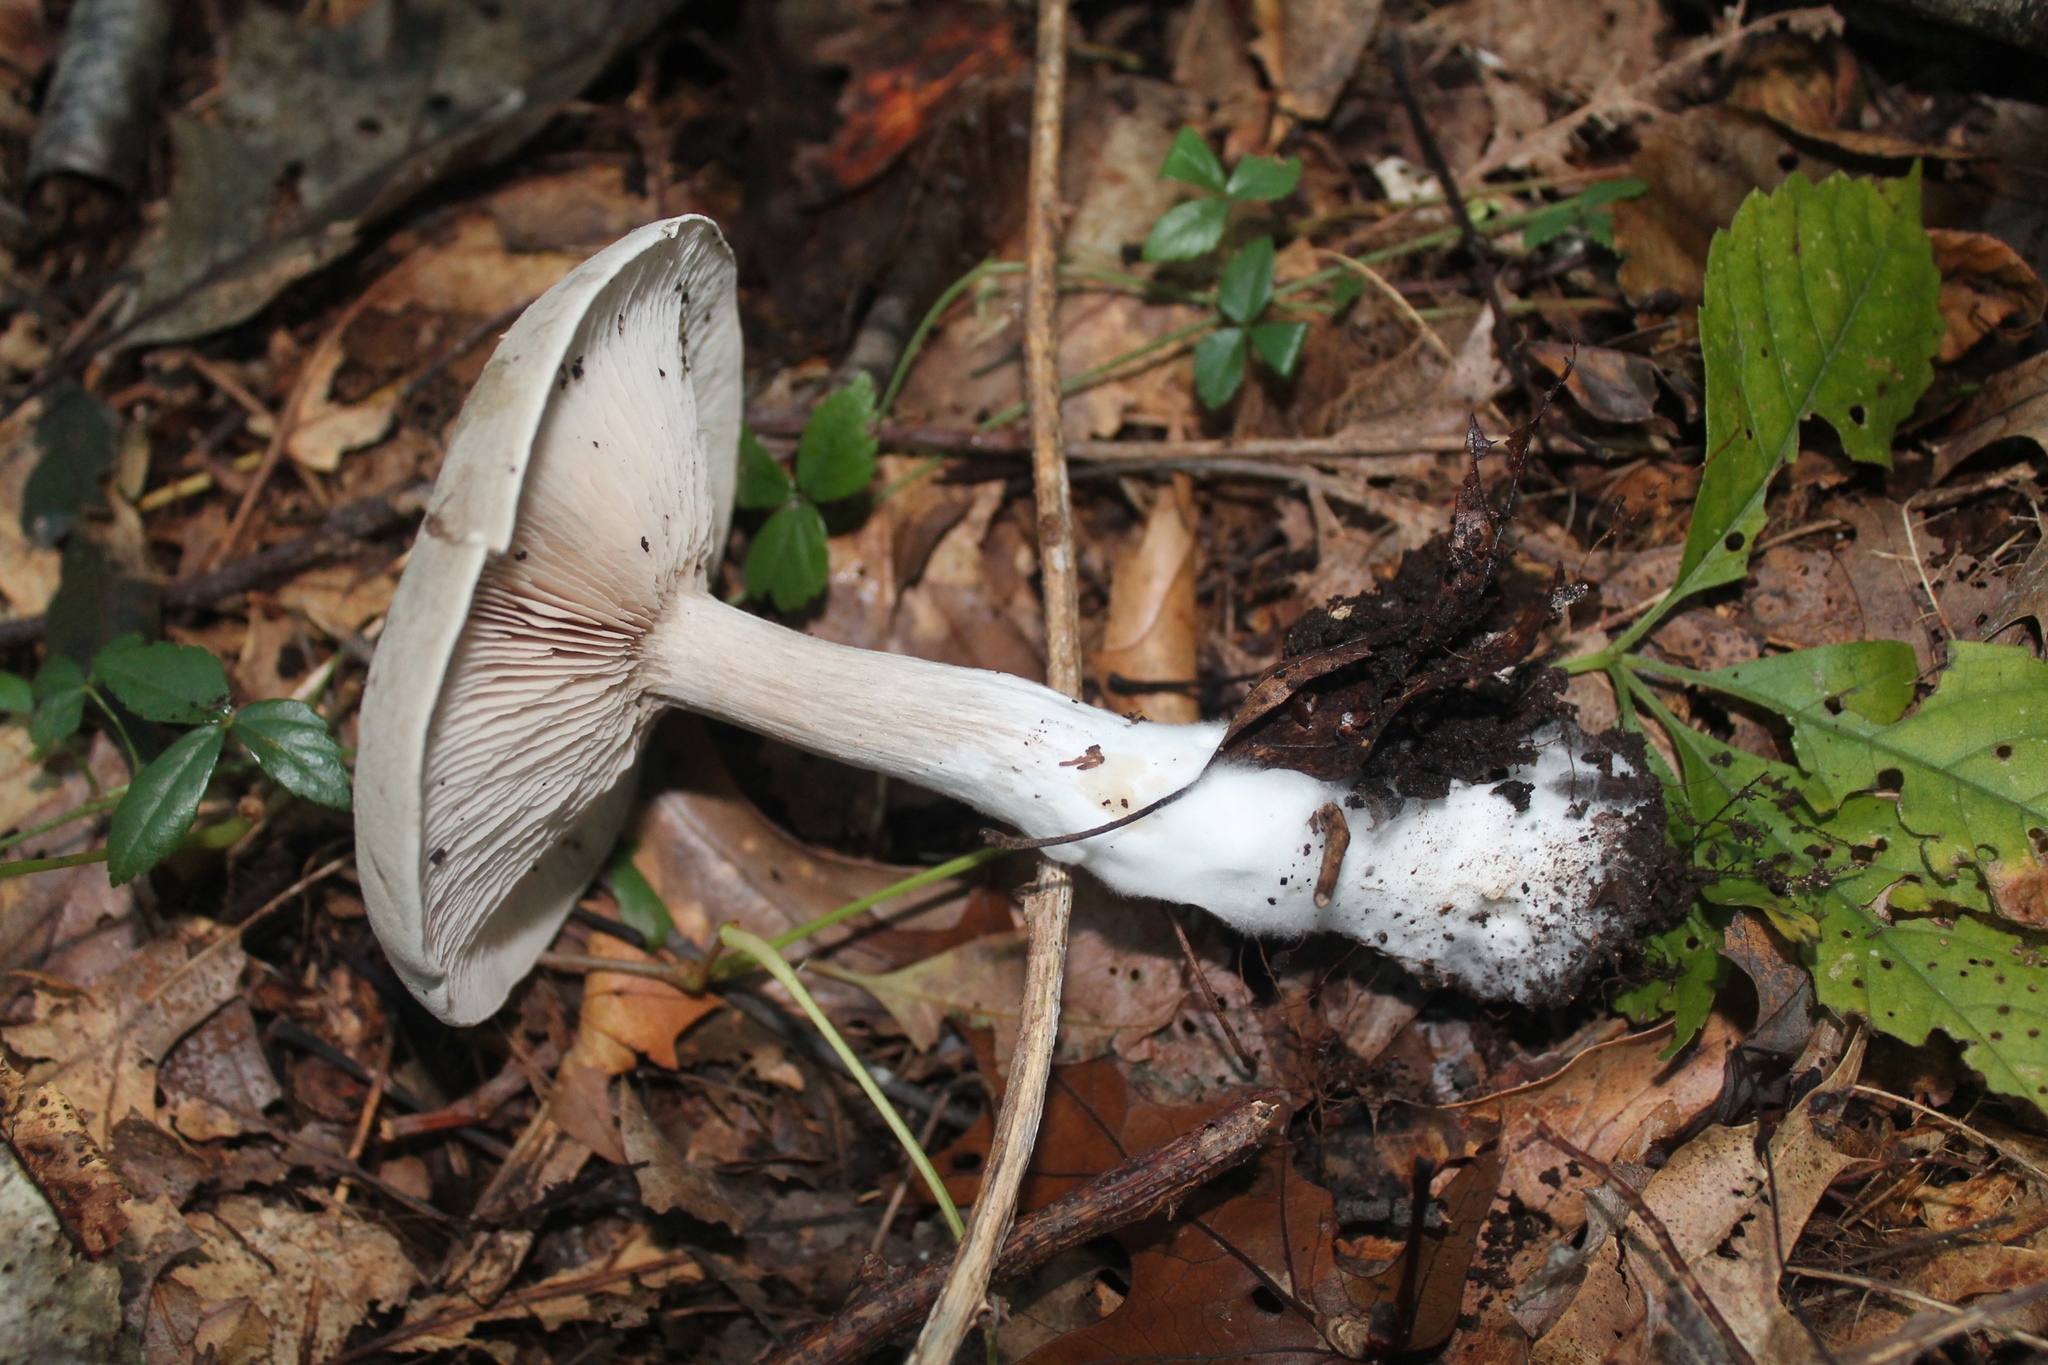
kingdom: Fungi
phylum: Basidiomycota
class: Agaricomycetes
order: Agaricales
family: Entolomataceae
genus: Entoloma
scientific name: Entoloma abortivum
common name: Aborted entoloma
